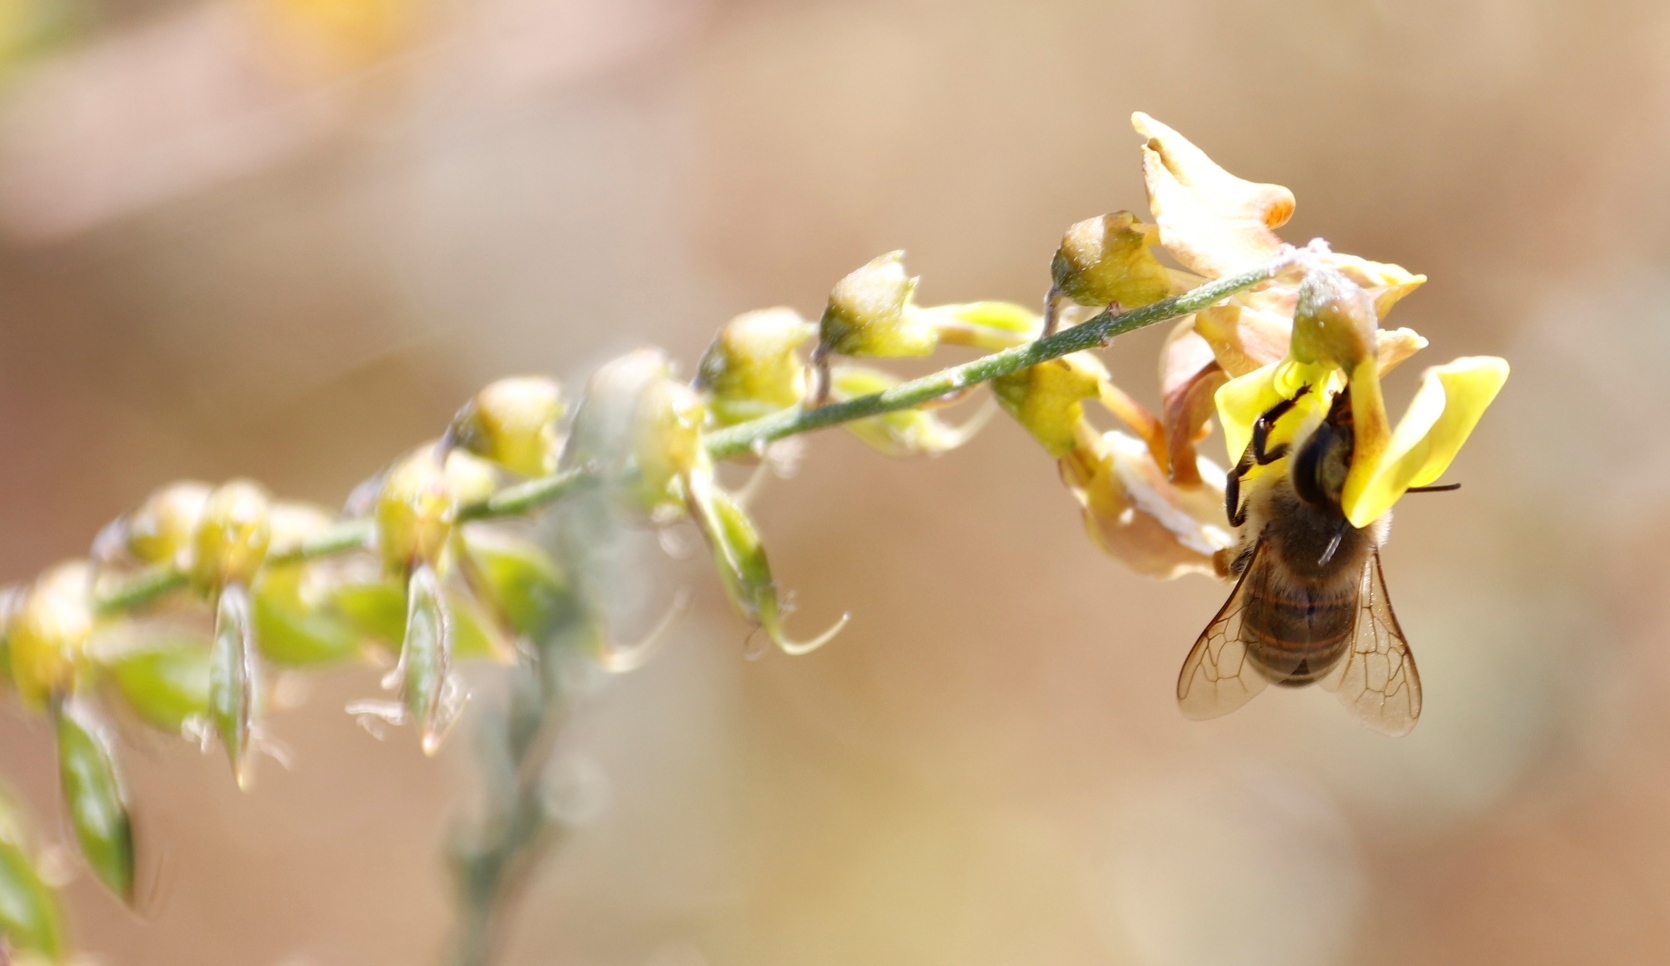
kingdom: Animalia
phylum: Arthropoda
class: Insecta
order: Hymenoptera
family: Apidae
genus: Apis
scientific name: Apis mellifera
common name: Honey bee
